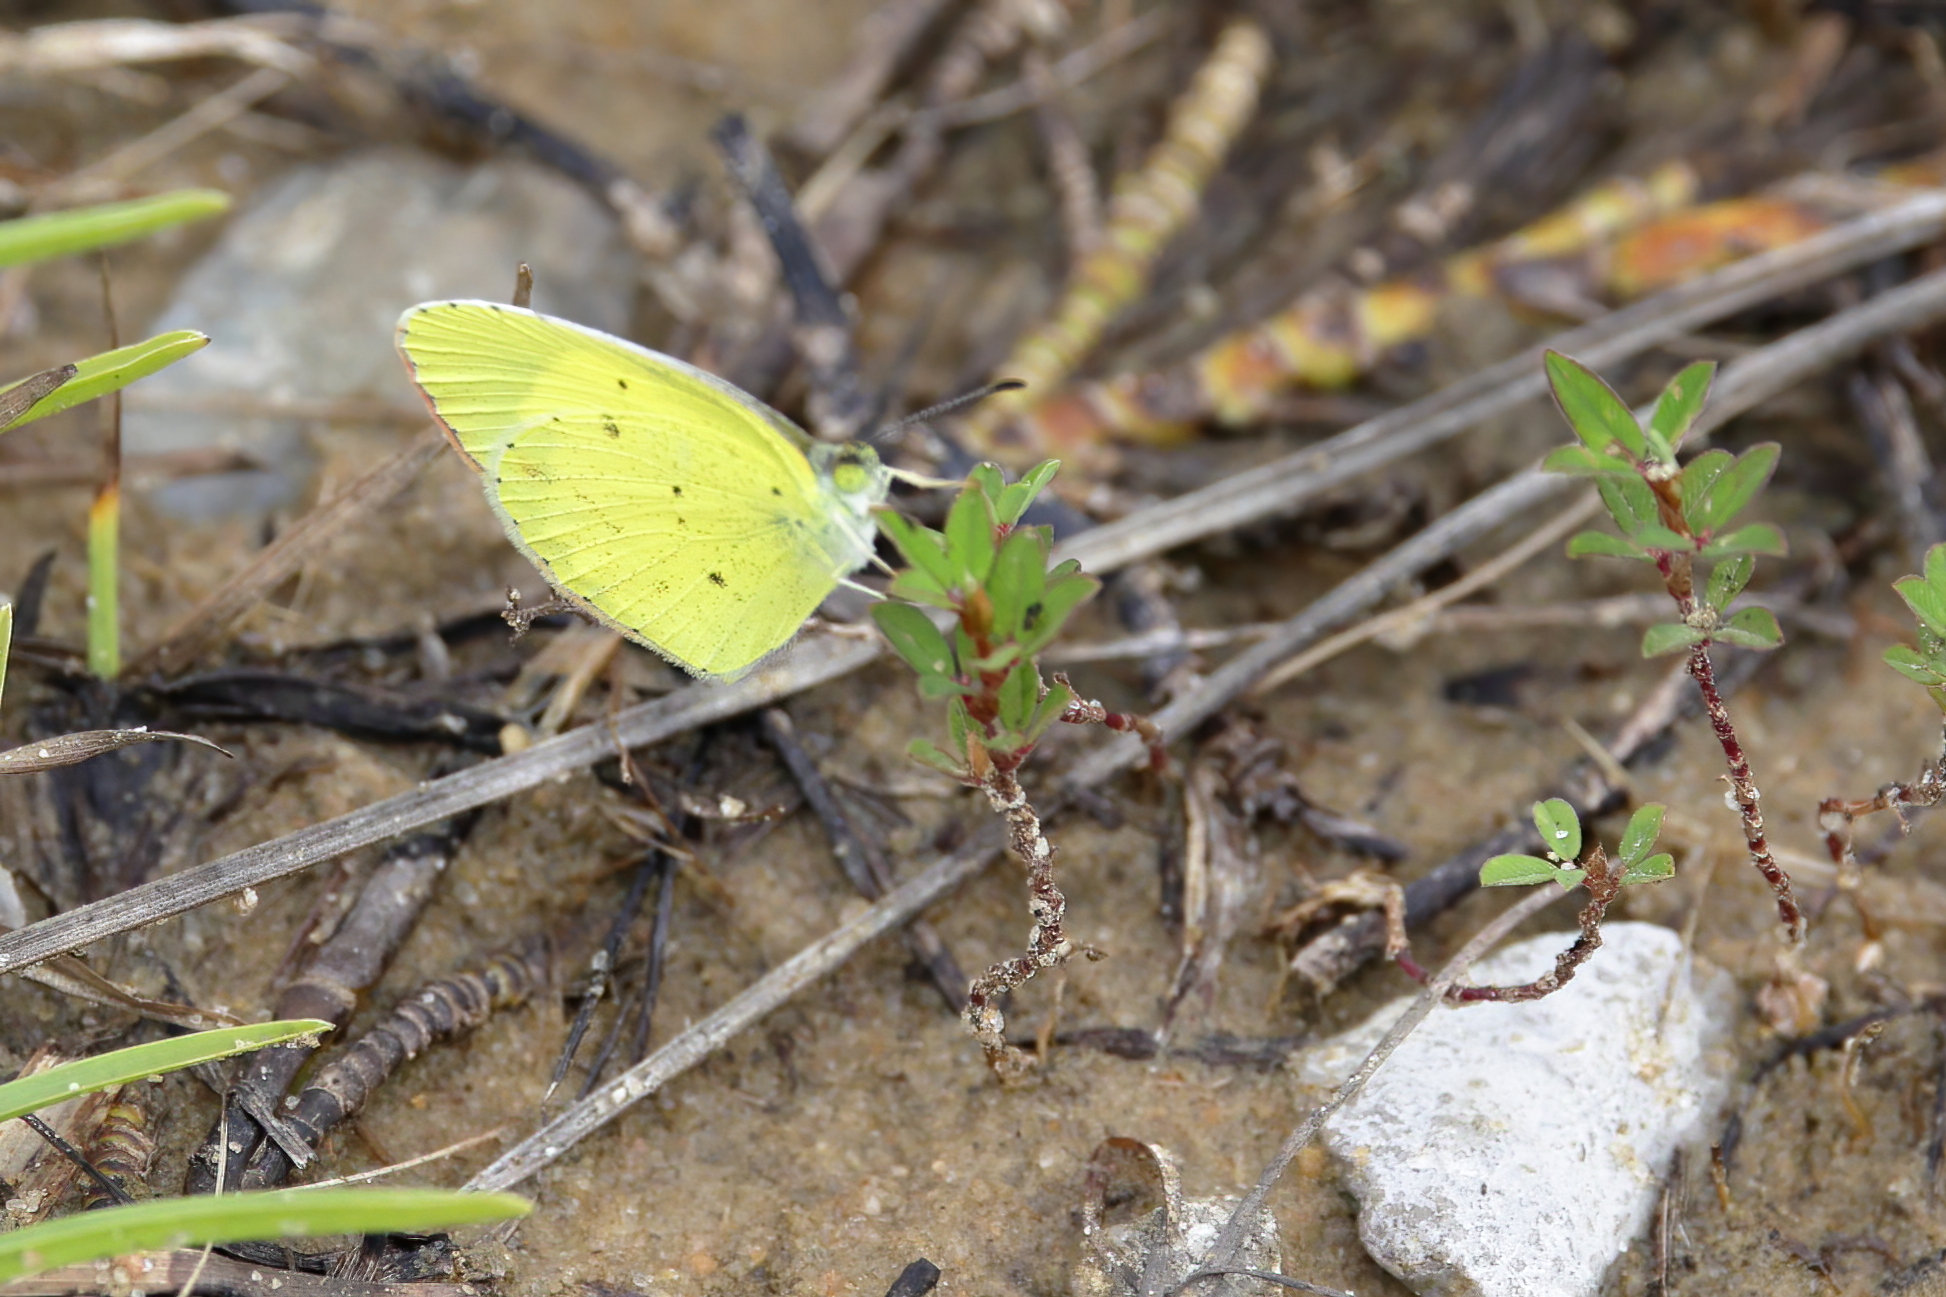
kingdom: Animalia
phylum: Arthropoda
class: Insecta
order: Lepidoptera
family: Pieridae
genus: Pyrisitia
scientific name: Pyrisitia lisa
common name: Little yellow
